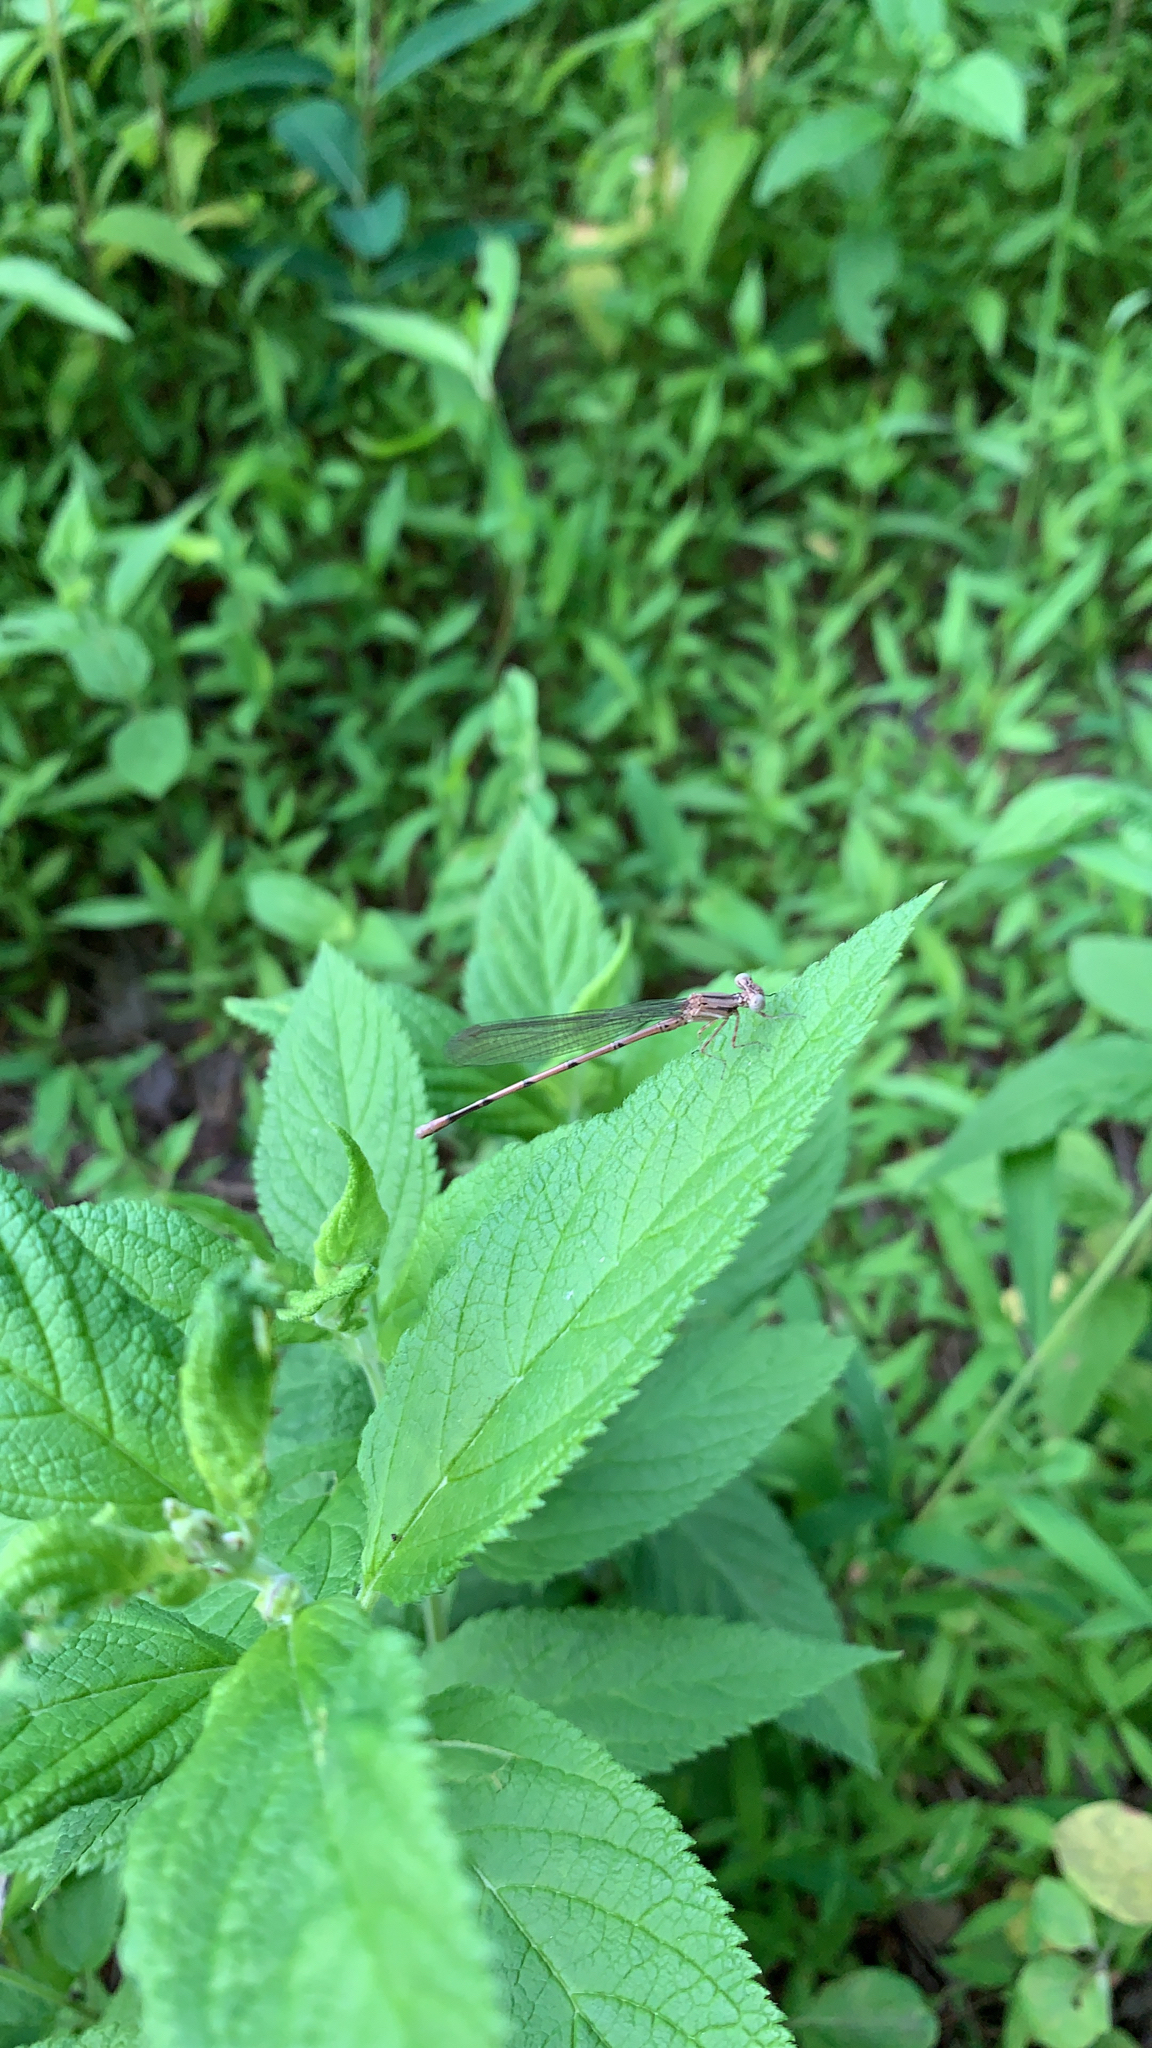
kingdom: Animalia
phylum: Arthropoda
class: Insecta
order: Odonata
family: Coenagrionidae
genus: Argia
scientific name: Argia fumipennis
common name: Variable dancer
